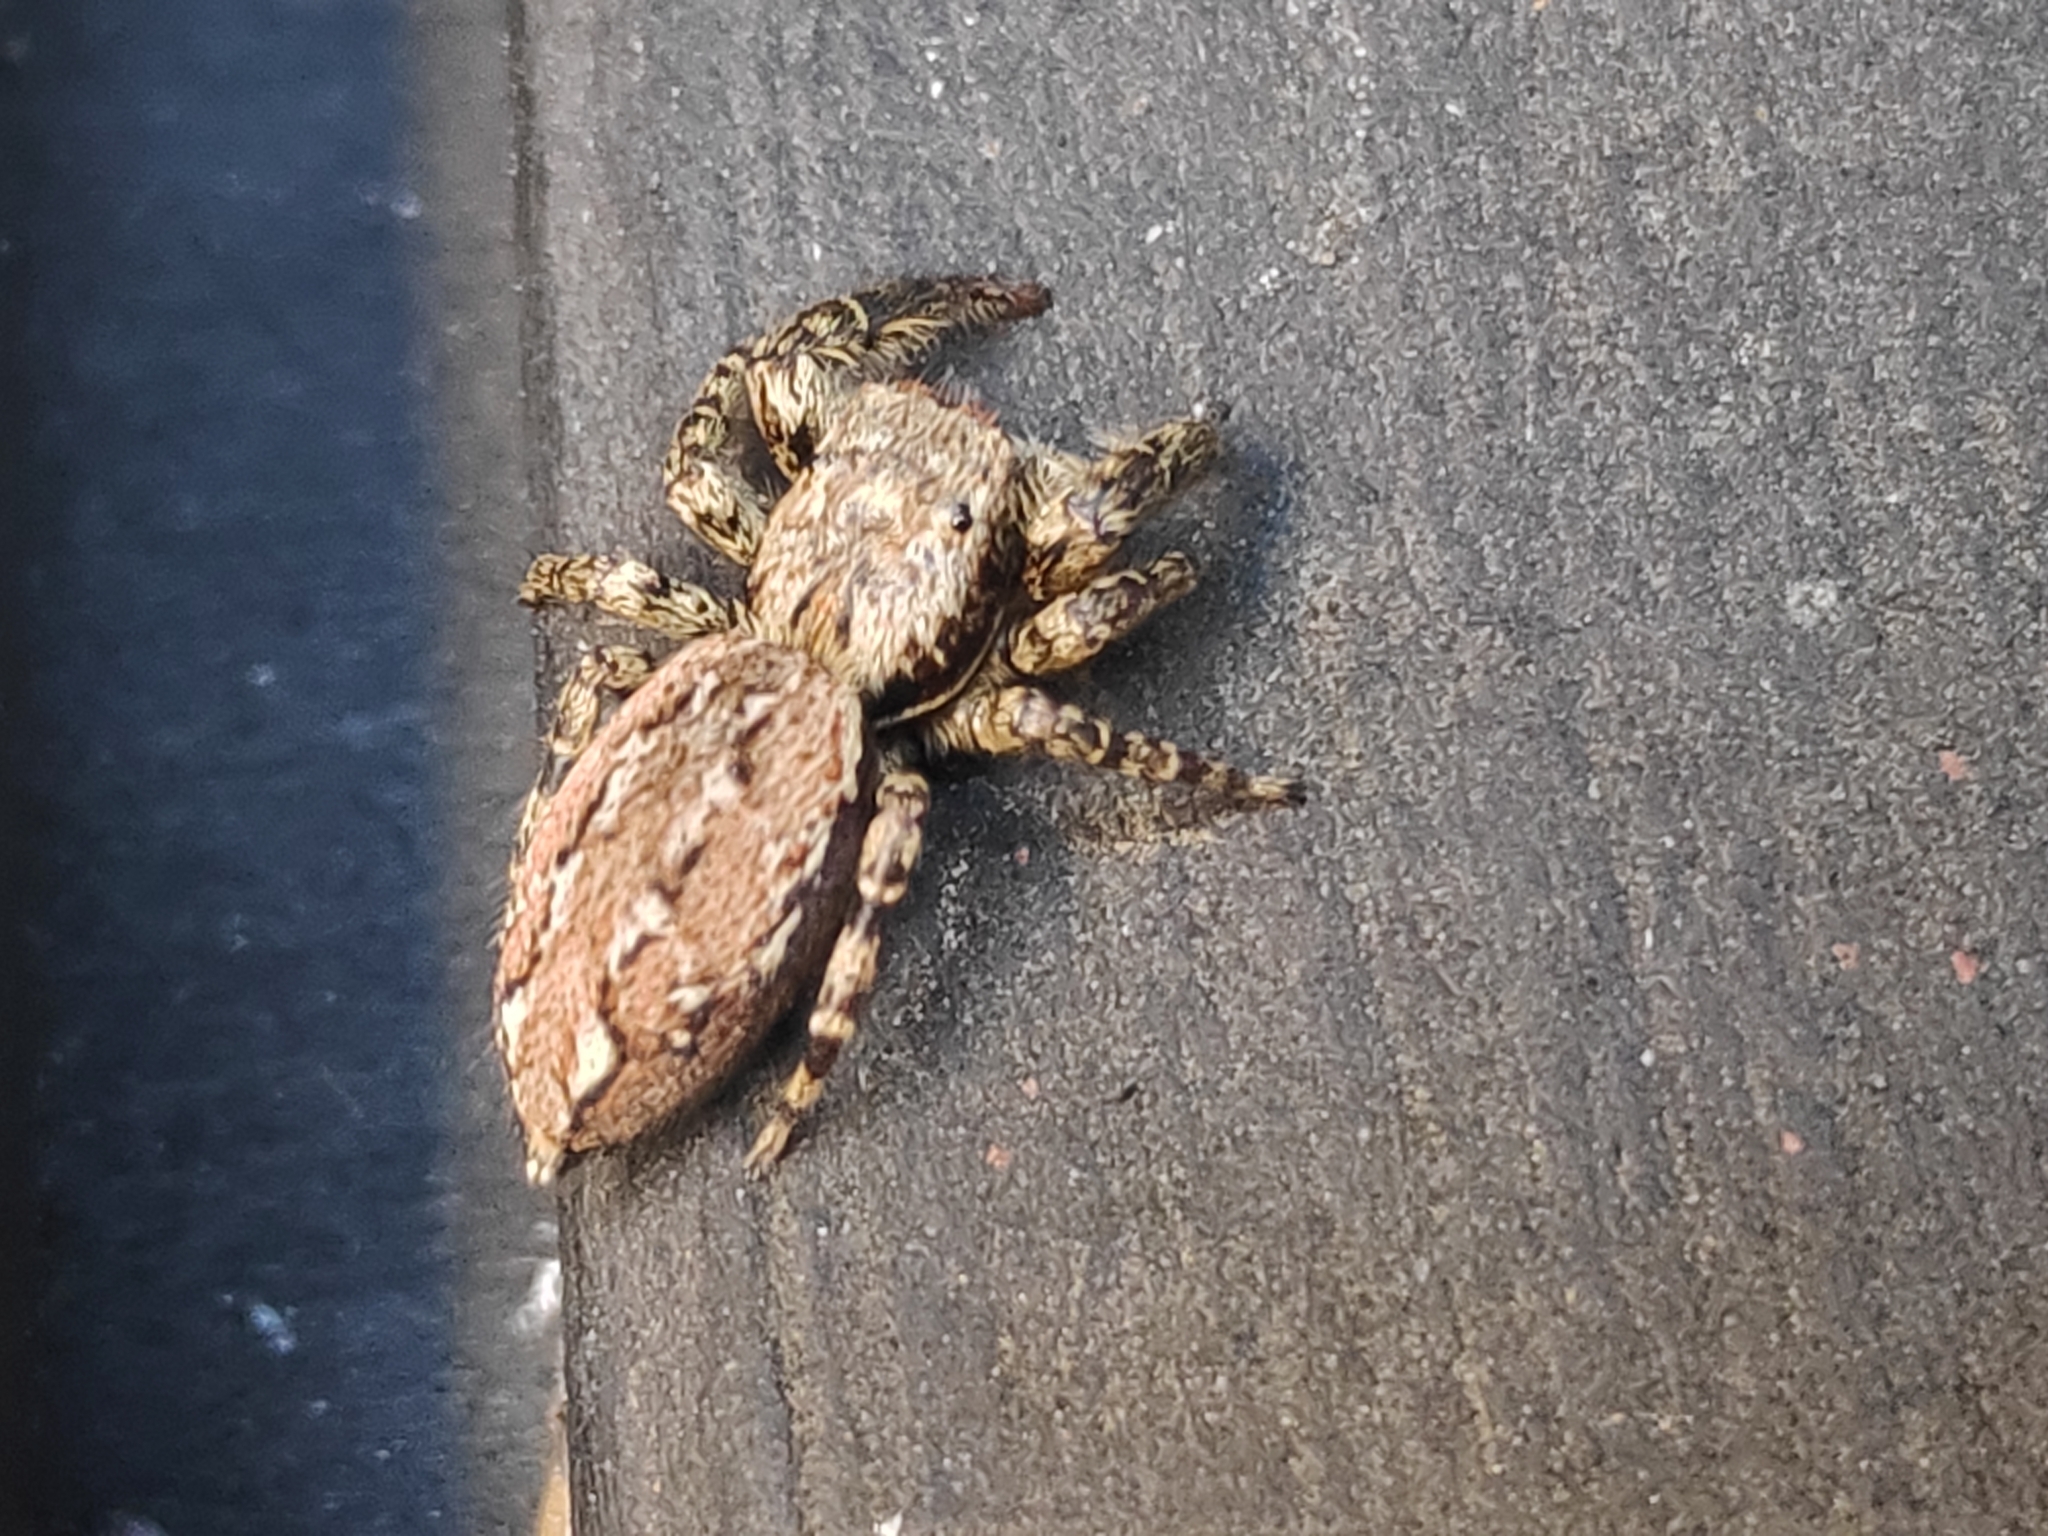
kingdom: Animalia
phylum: Arthropoda
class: Arachnida
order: Araneae
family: Salticidae
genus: Marpissa
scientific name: Marpissa muscosa
